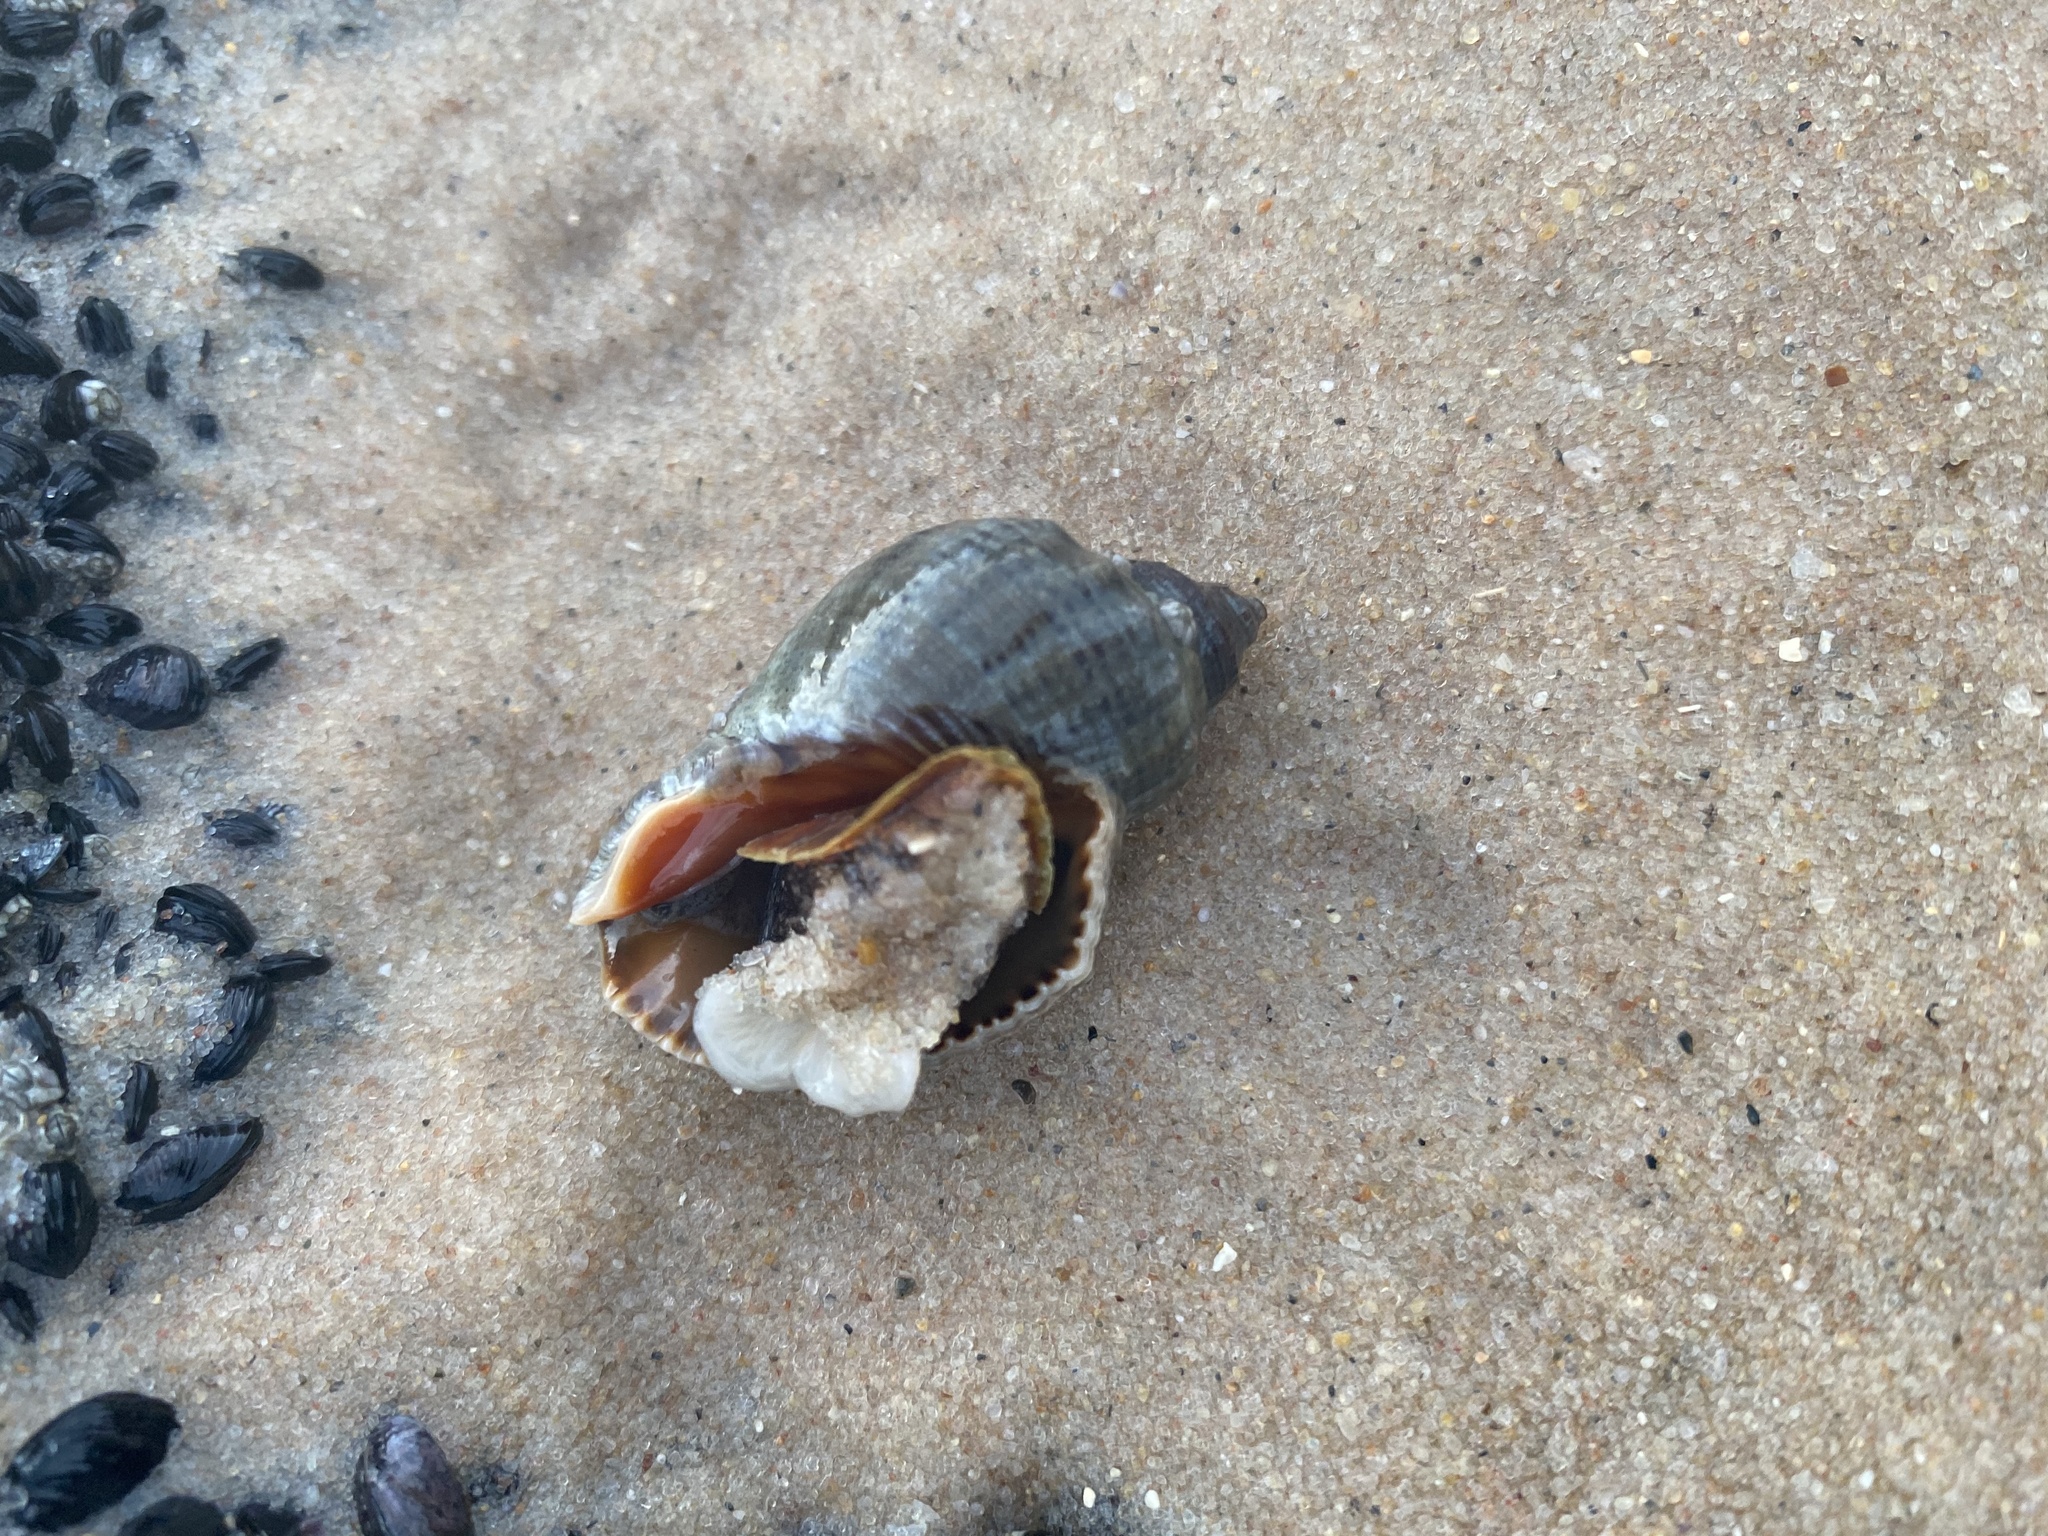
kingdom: Animalia
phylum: Mollusca
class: Gastropoda
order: Neogastropoda
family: Muricidae
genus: Stramonita
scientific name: Stramonita brasiliensis
